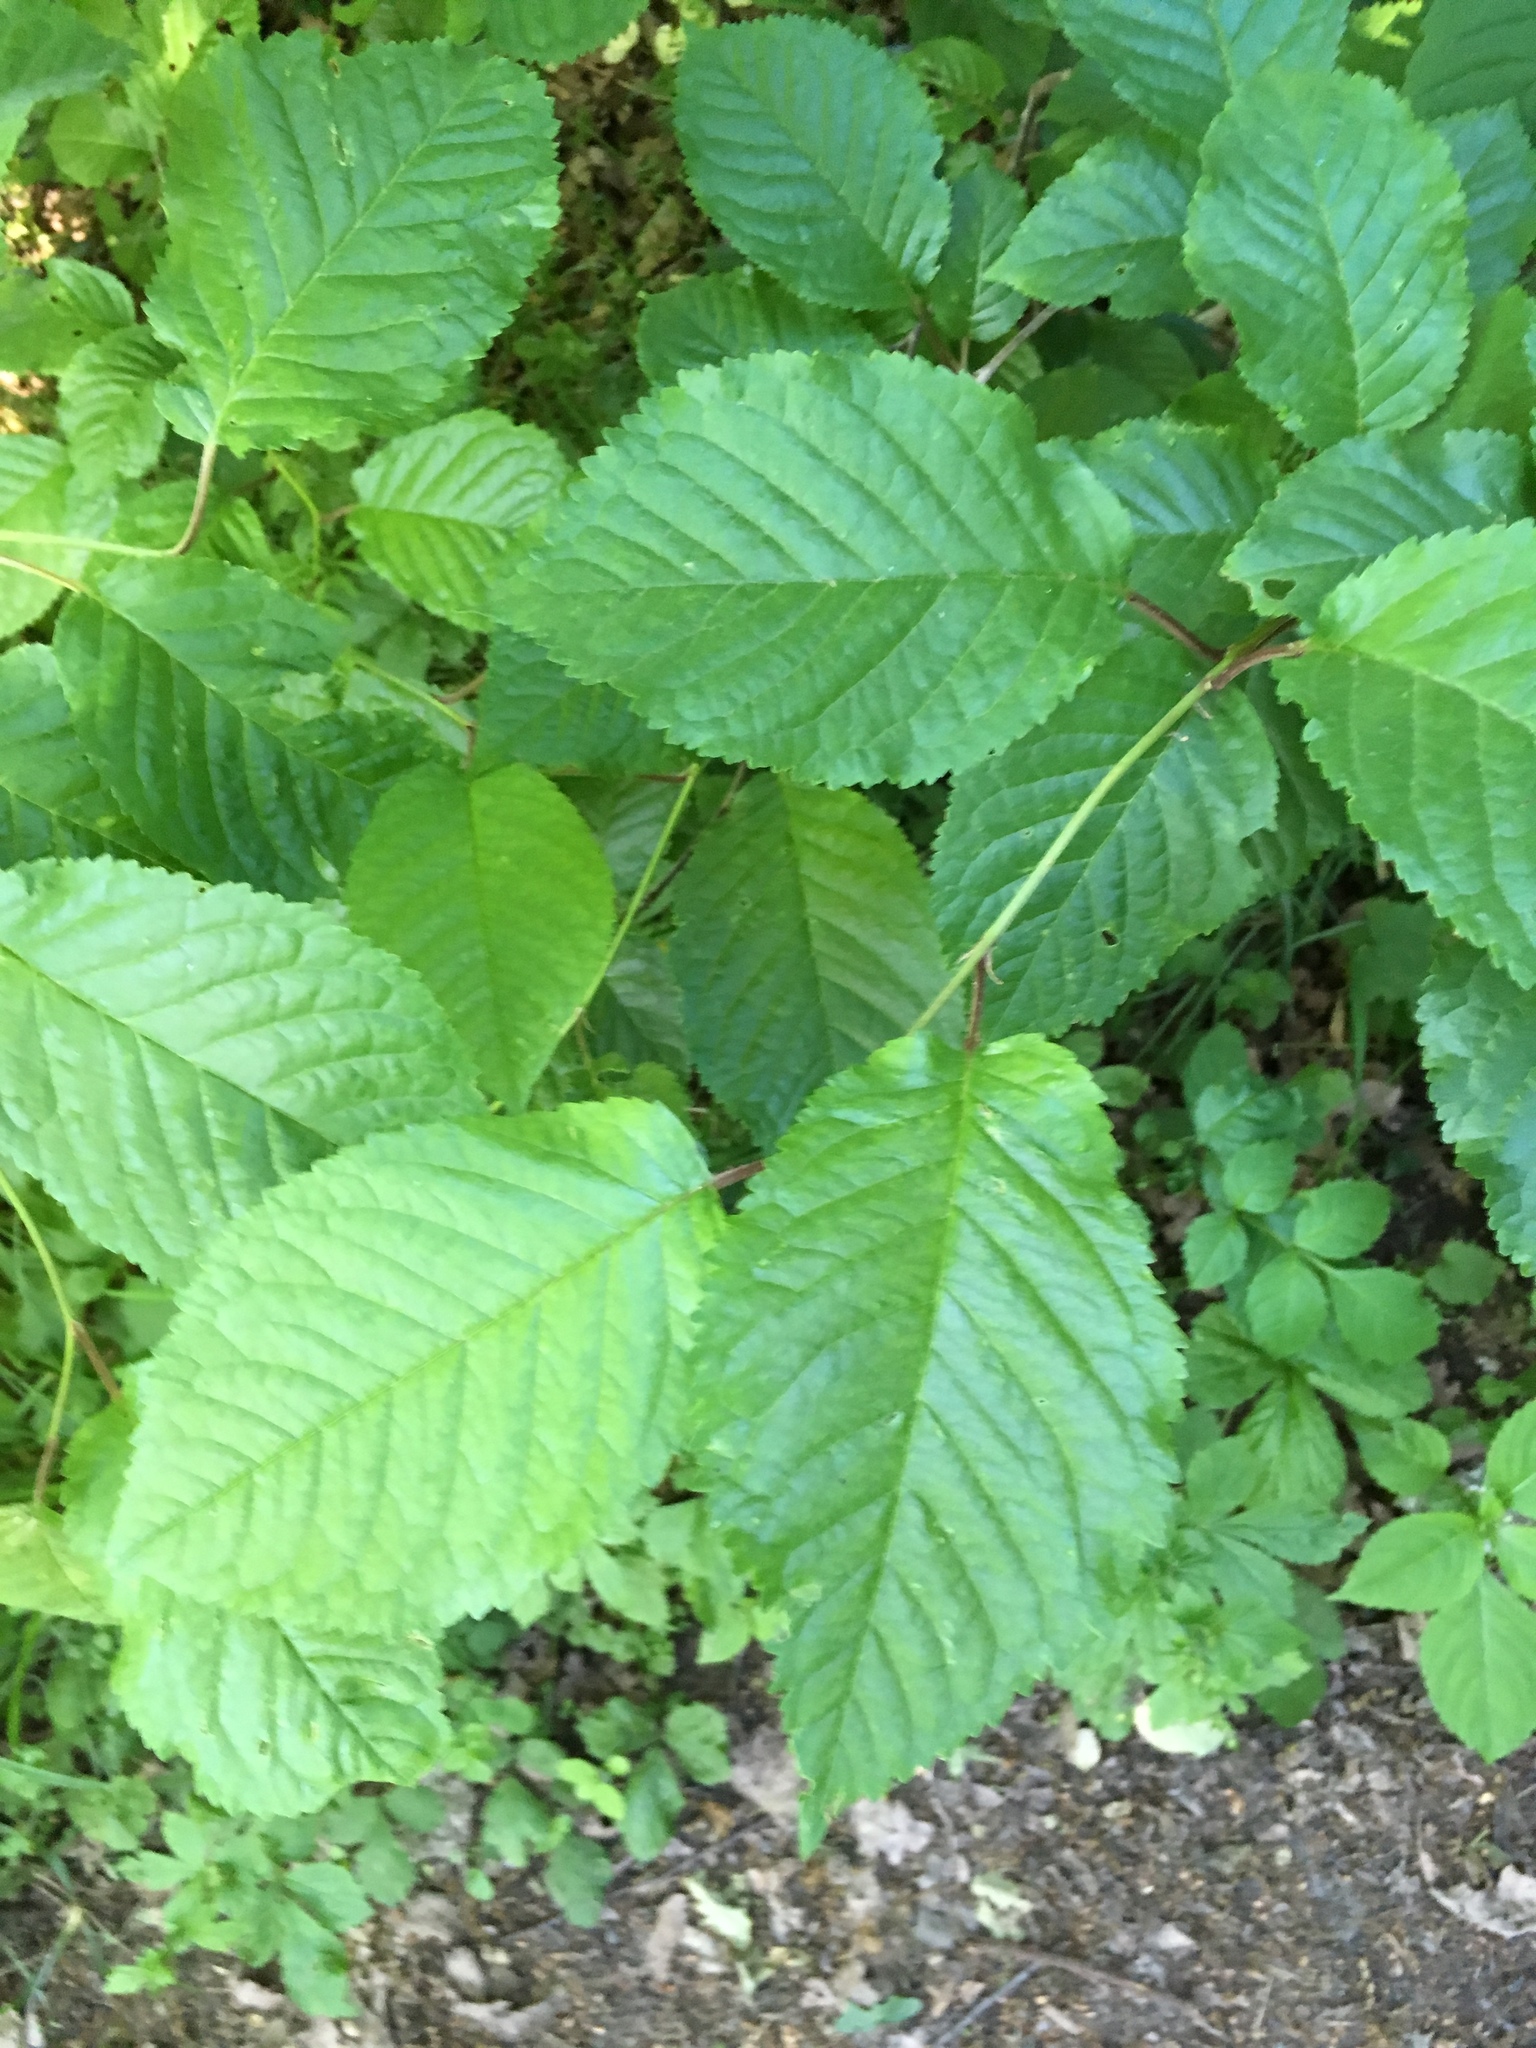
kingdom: Plantae
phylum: Tracheophyta
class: Magnoliopsida
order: Rosales
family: Rosaceae
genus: Prunus
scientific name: Prunus avium
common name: Sweet cherry
